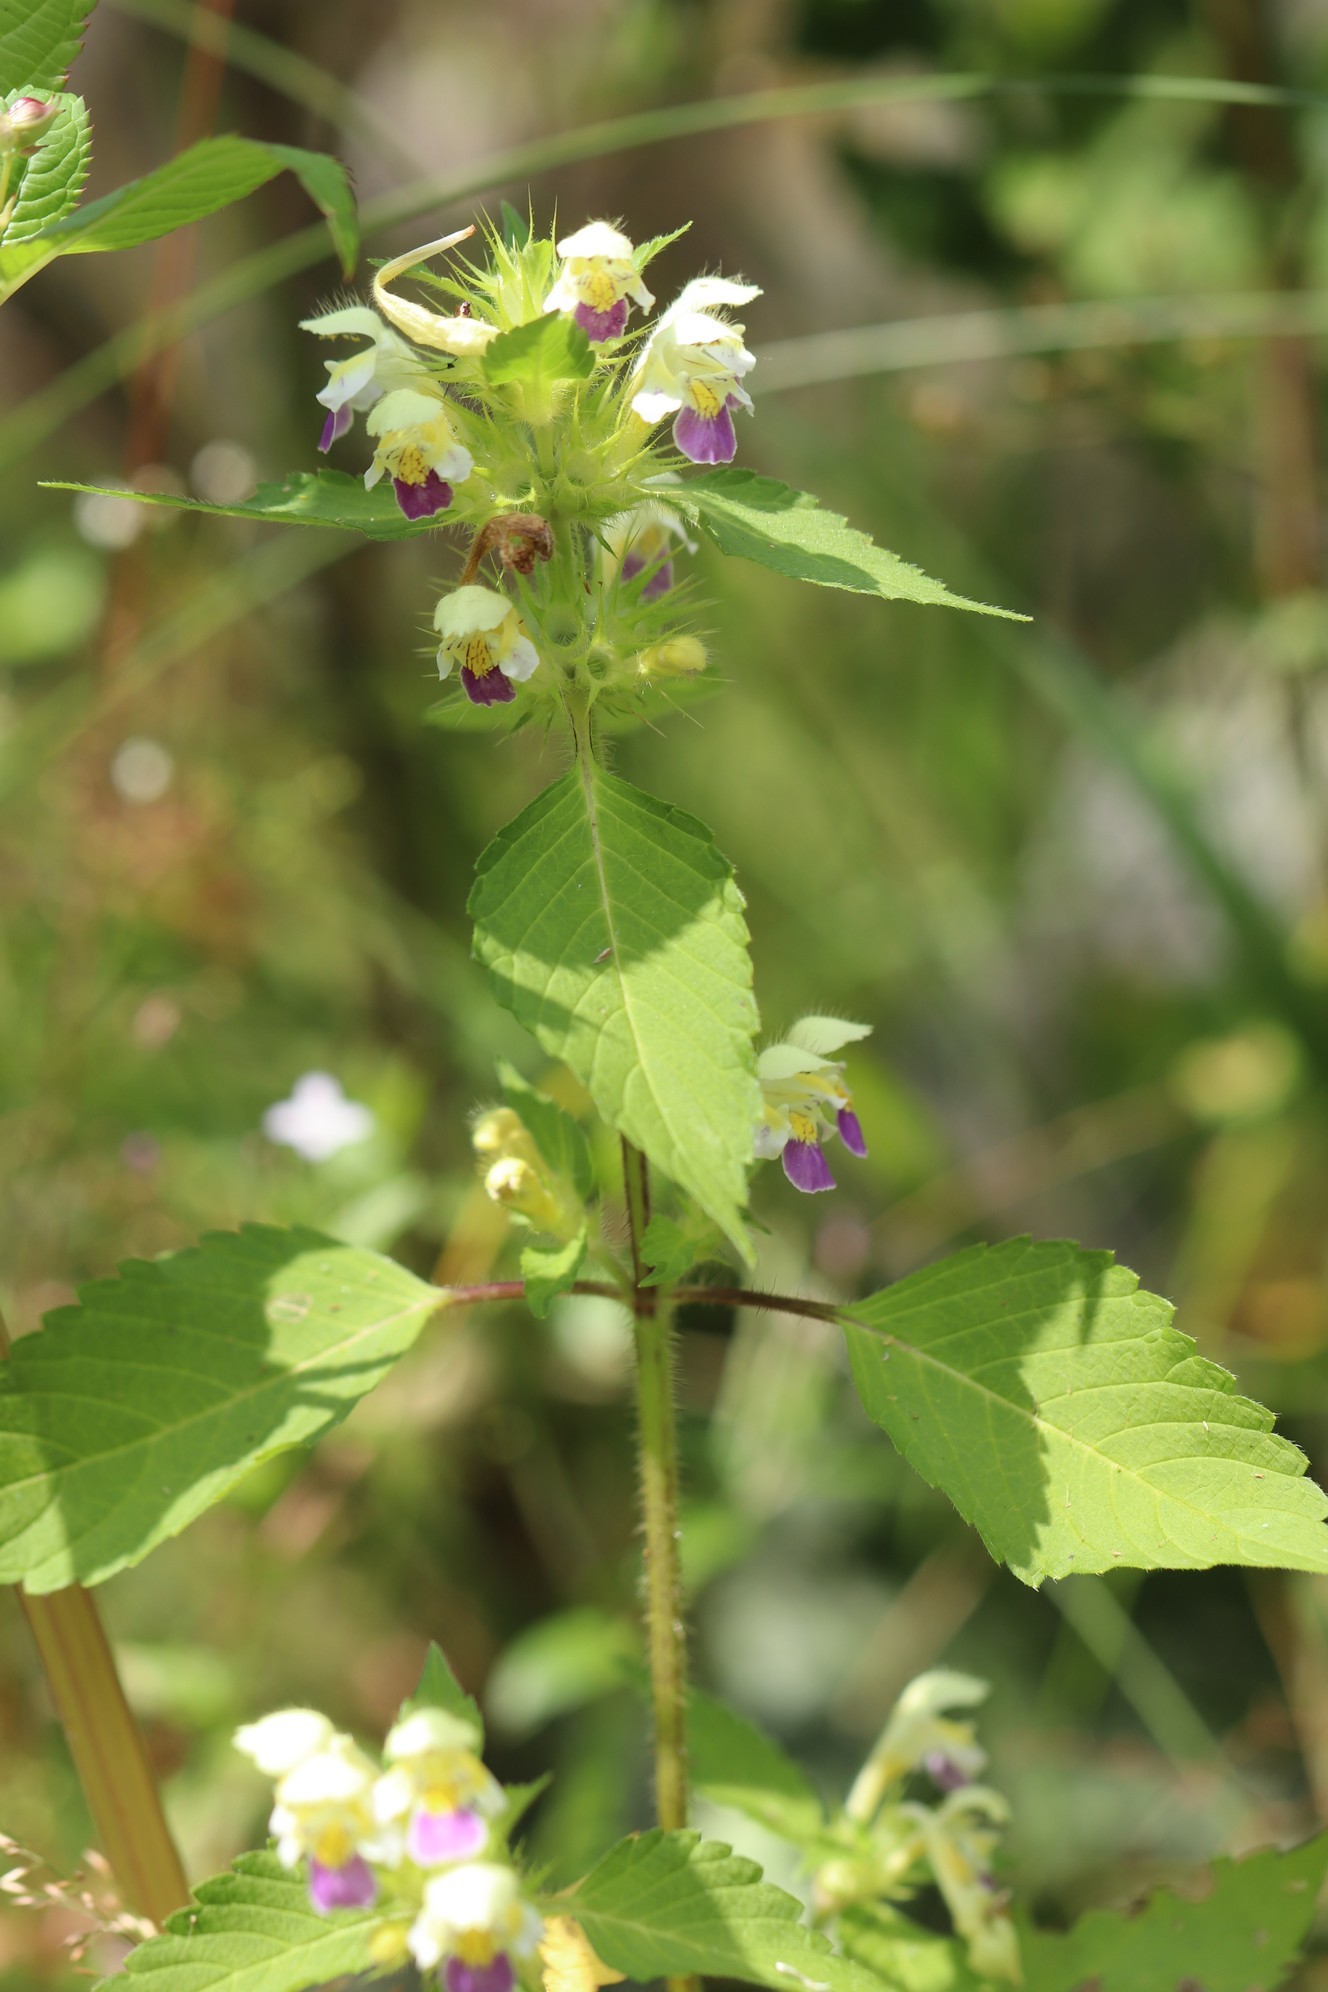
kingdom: Plantae
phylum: Tracheophyta
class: Magnoliopsida
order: Lamiales
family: Lamiaceae
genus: Galeopsis
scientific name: Galeopsis speciosa
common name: Large-flowered hemp-nettle
